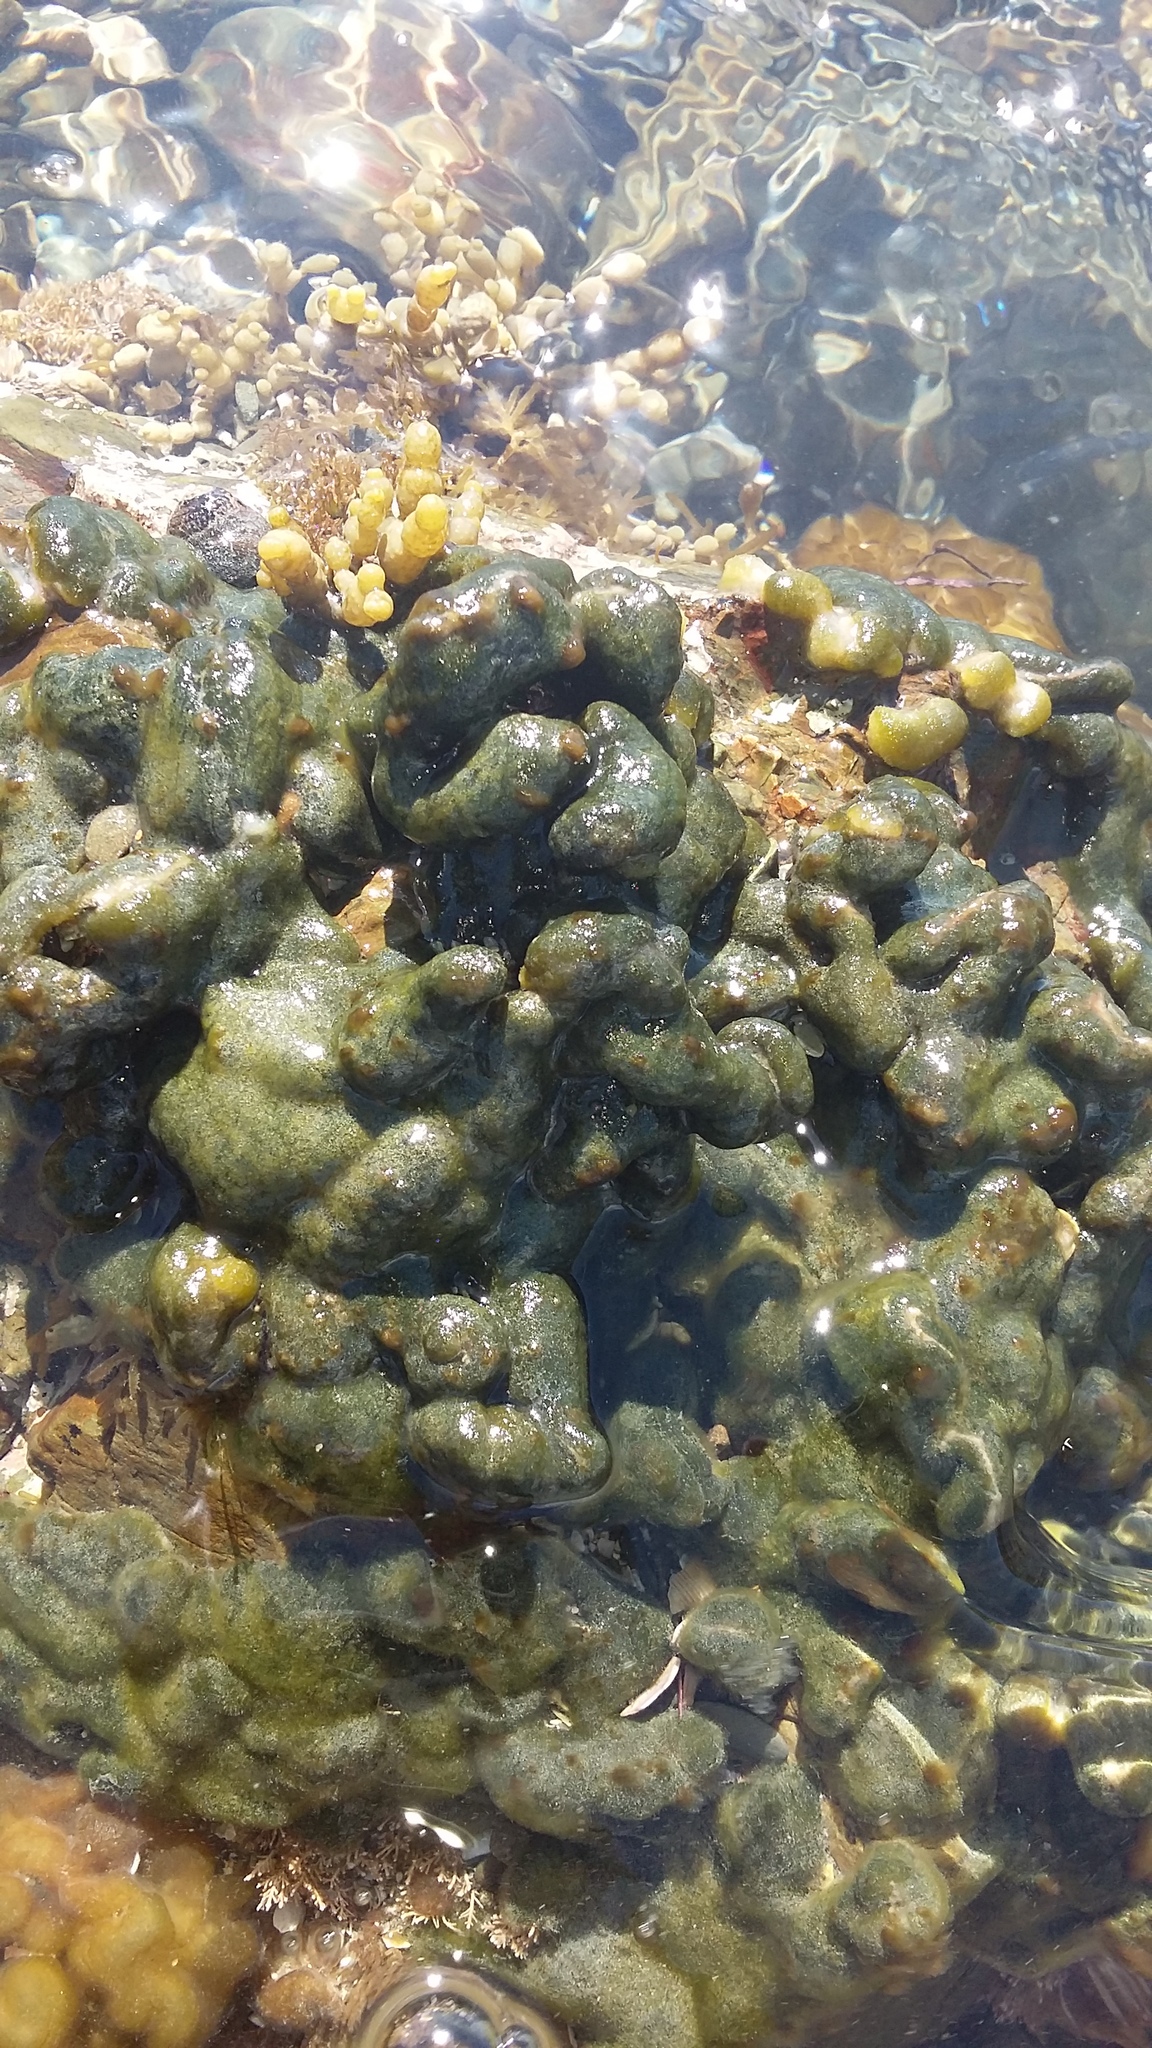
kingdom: Plantae
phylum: Chlorophyta
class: Ulvophyceae
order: Bryopsidales
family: Codiaceae
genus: Codium
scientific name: Codium convolutum
